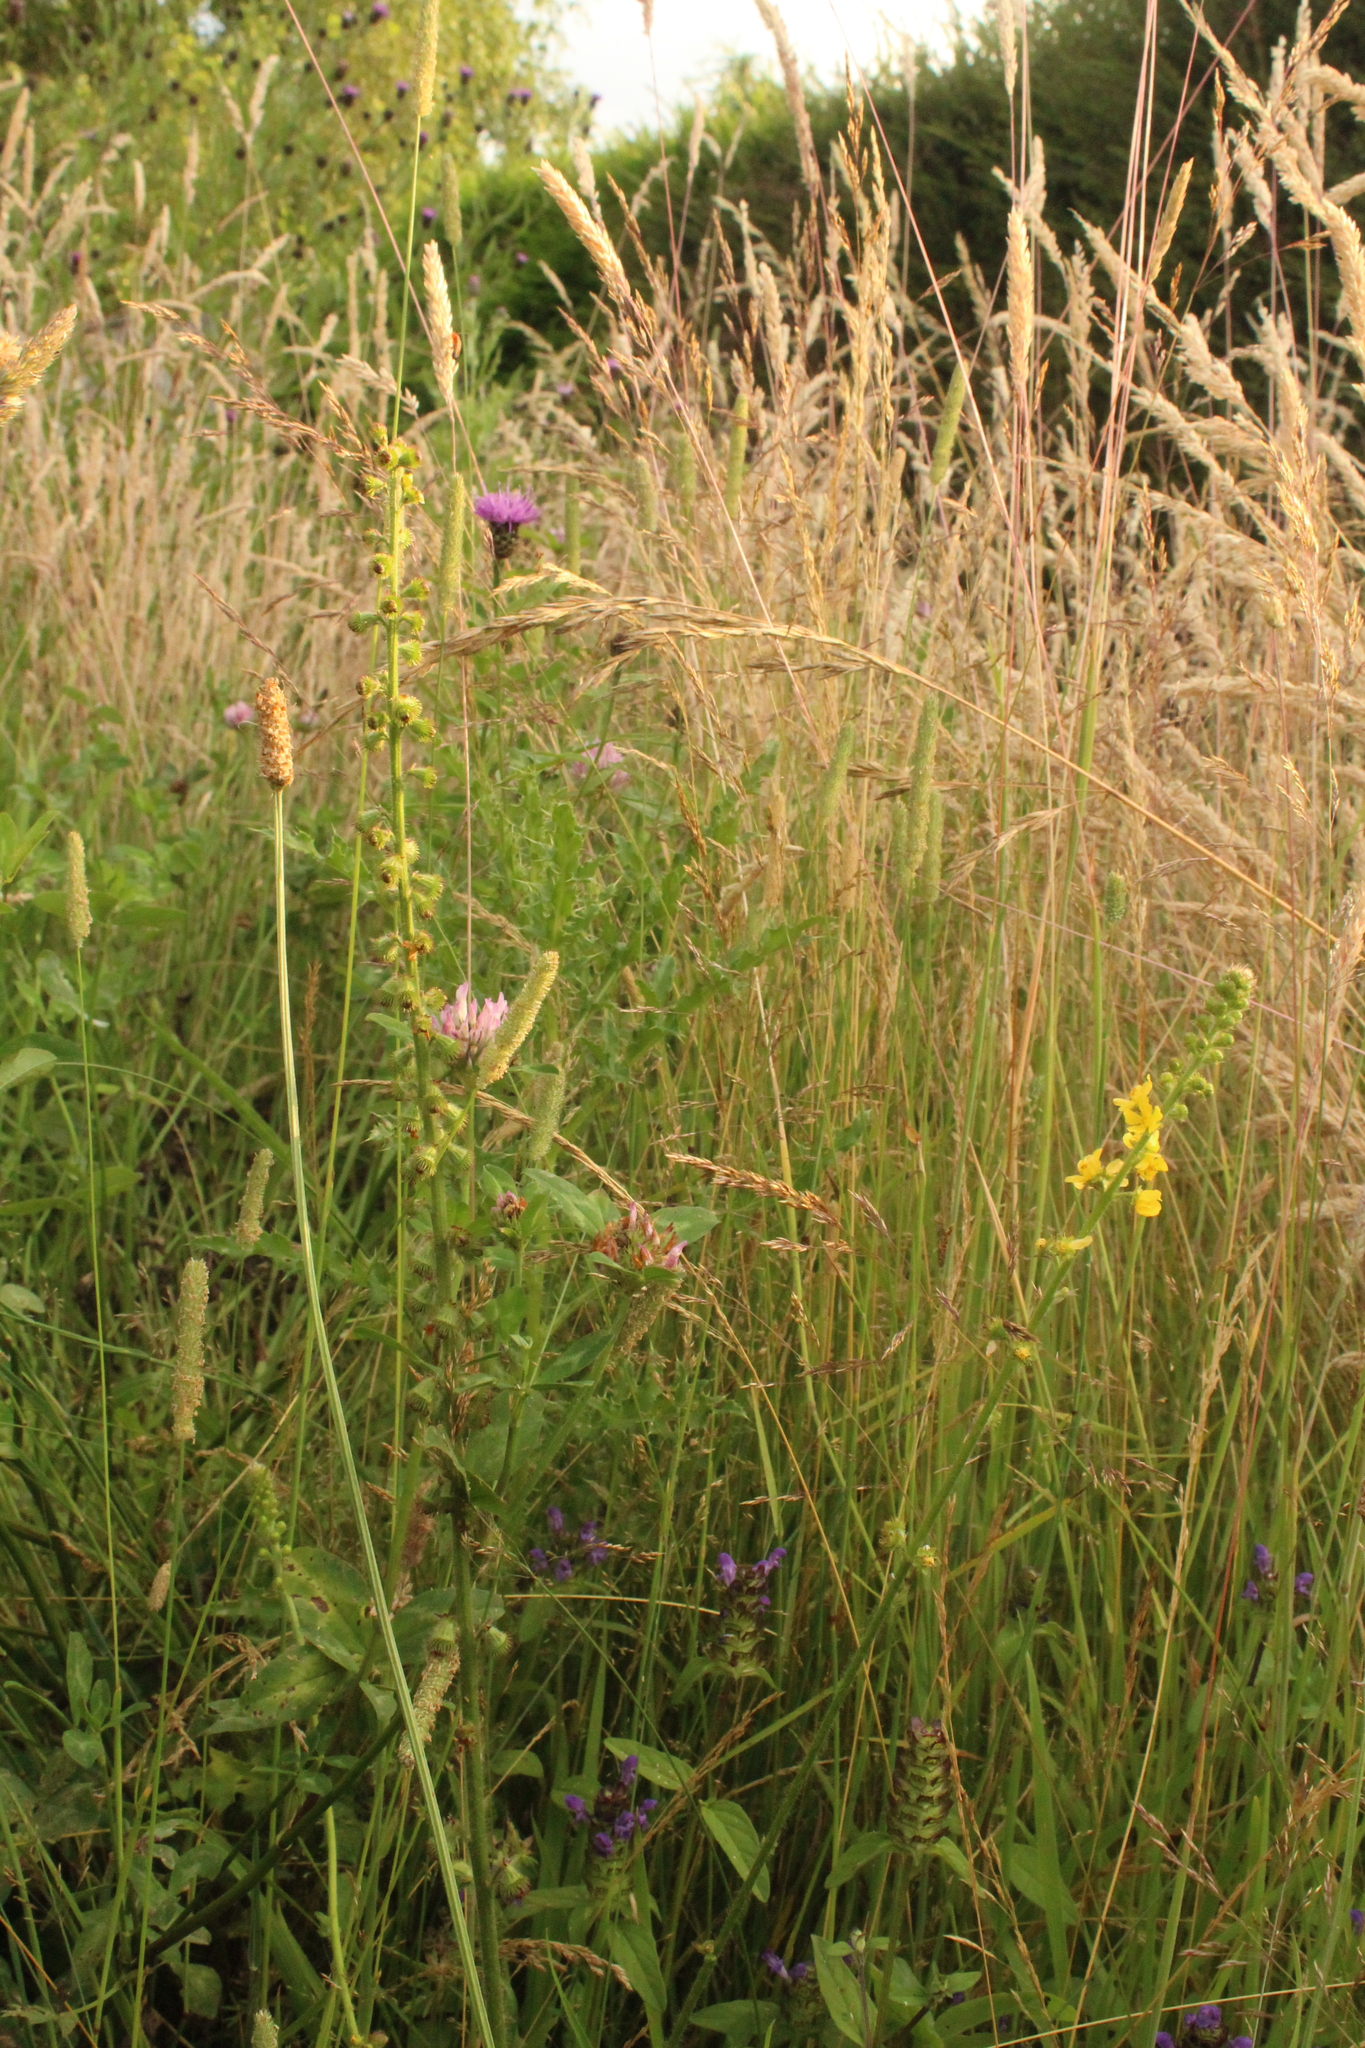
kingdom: Plantae
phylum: Tracheophyta
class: Magnoliopsida
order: Rosales
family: Rosaceae
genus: Agrimonia
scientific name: Agrimonia eupatoria
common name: Agrimony
